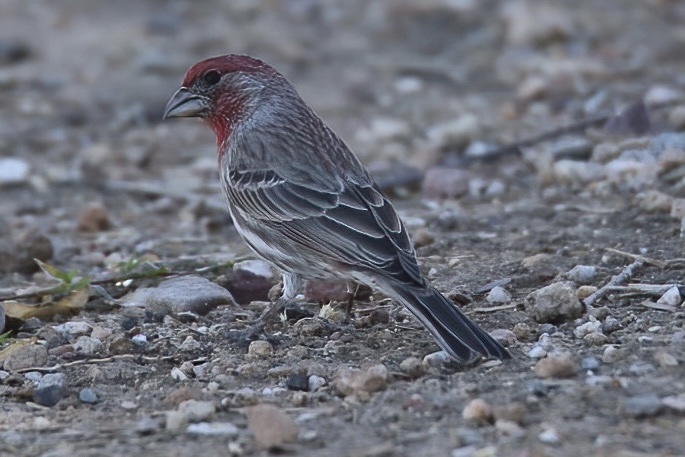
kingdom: Animalia
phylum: Chordata
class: Aves
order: Passeriformes
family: Fringillidae
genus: Haemorhous
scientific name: Haemorhous mexicanus
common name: House finch
